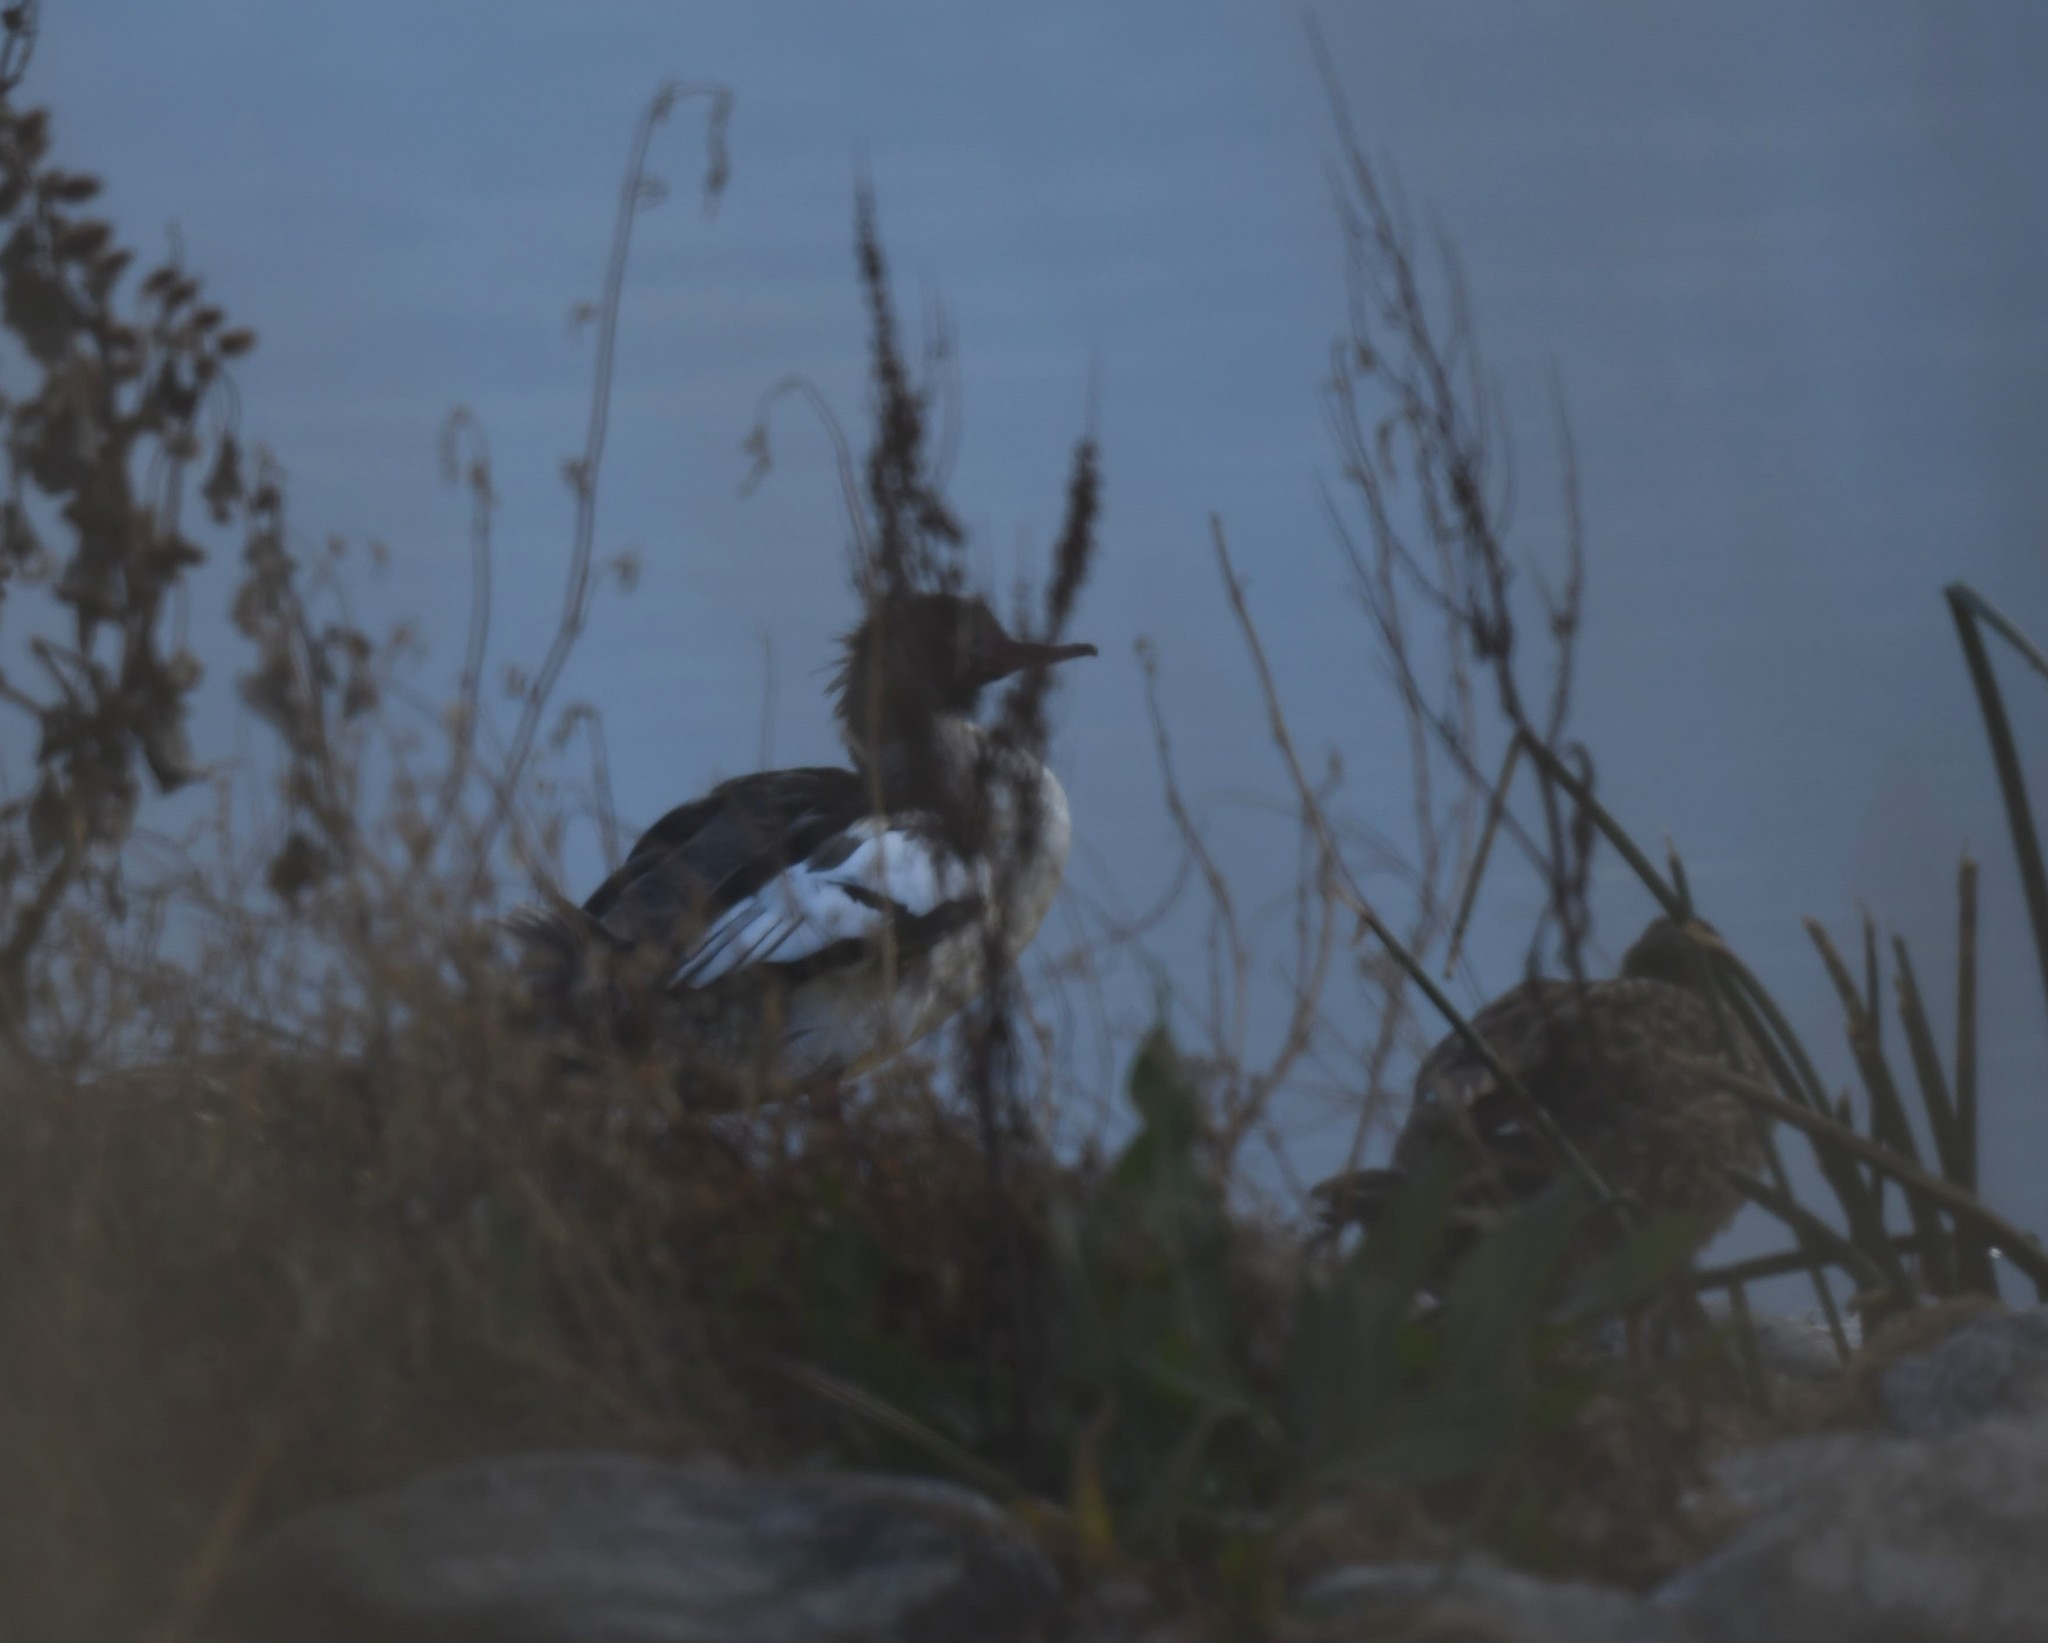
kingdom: Animalia
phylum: Chordata
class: Aves
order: Anseriformes
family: Anatidae
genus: Mergus
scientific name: Mergus serrator
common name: Red-breasted merganser
